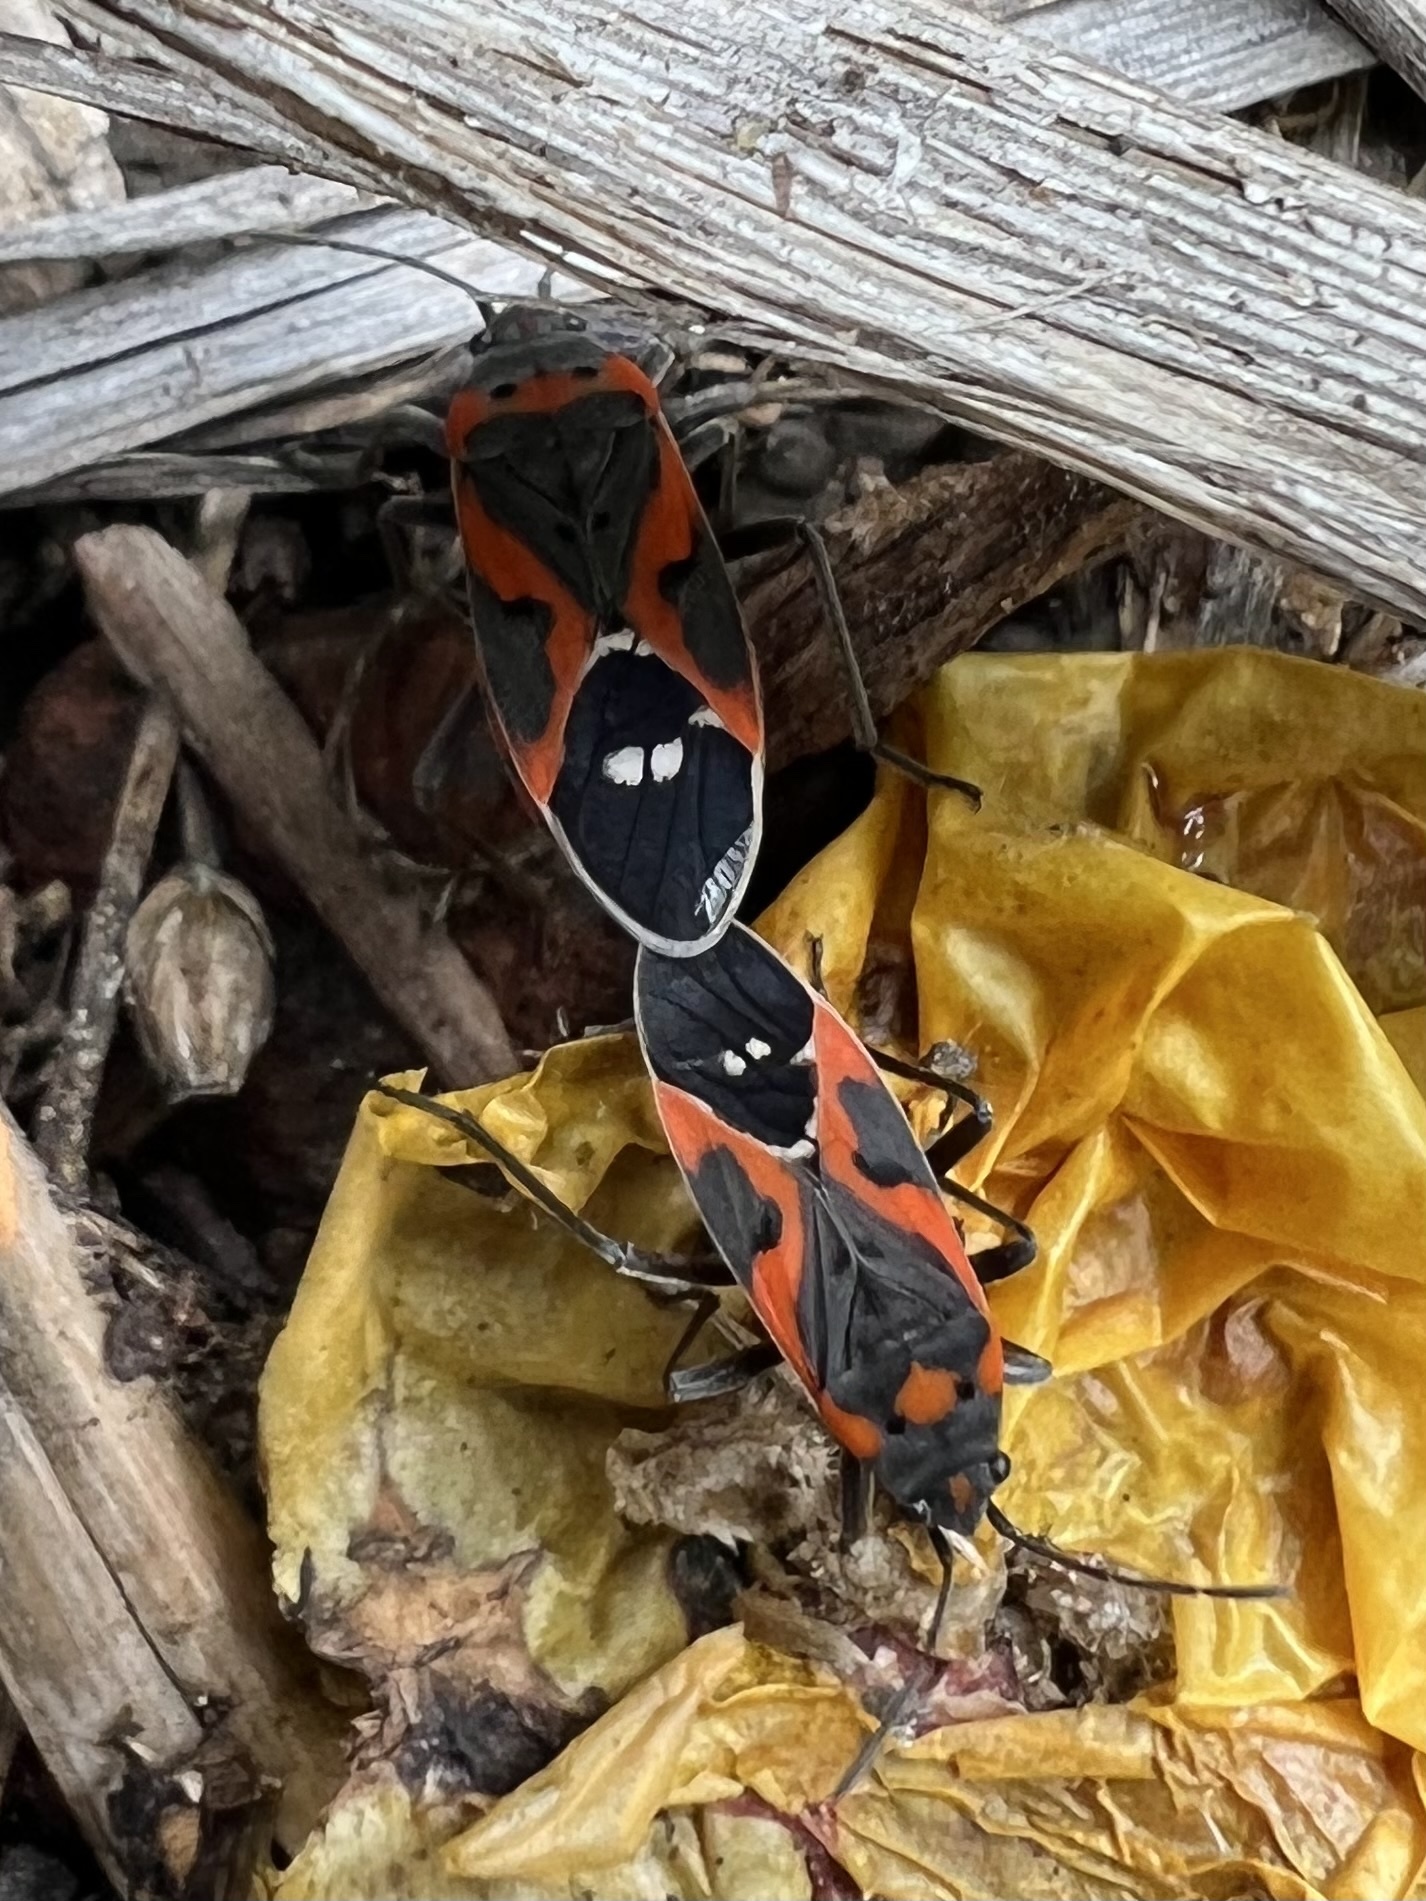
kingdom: Animalia
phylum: Arthropoda
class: Insecta
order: Hemiptera
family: Lygaeidae
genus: Lygaeus
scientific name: Lygaeus kalmii
